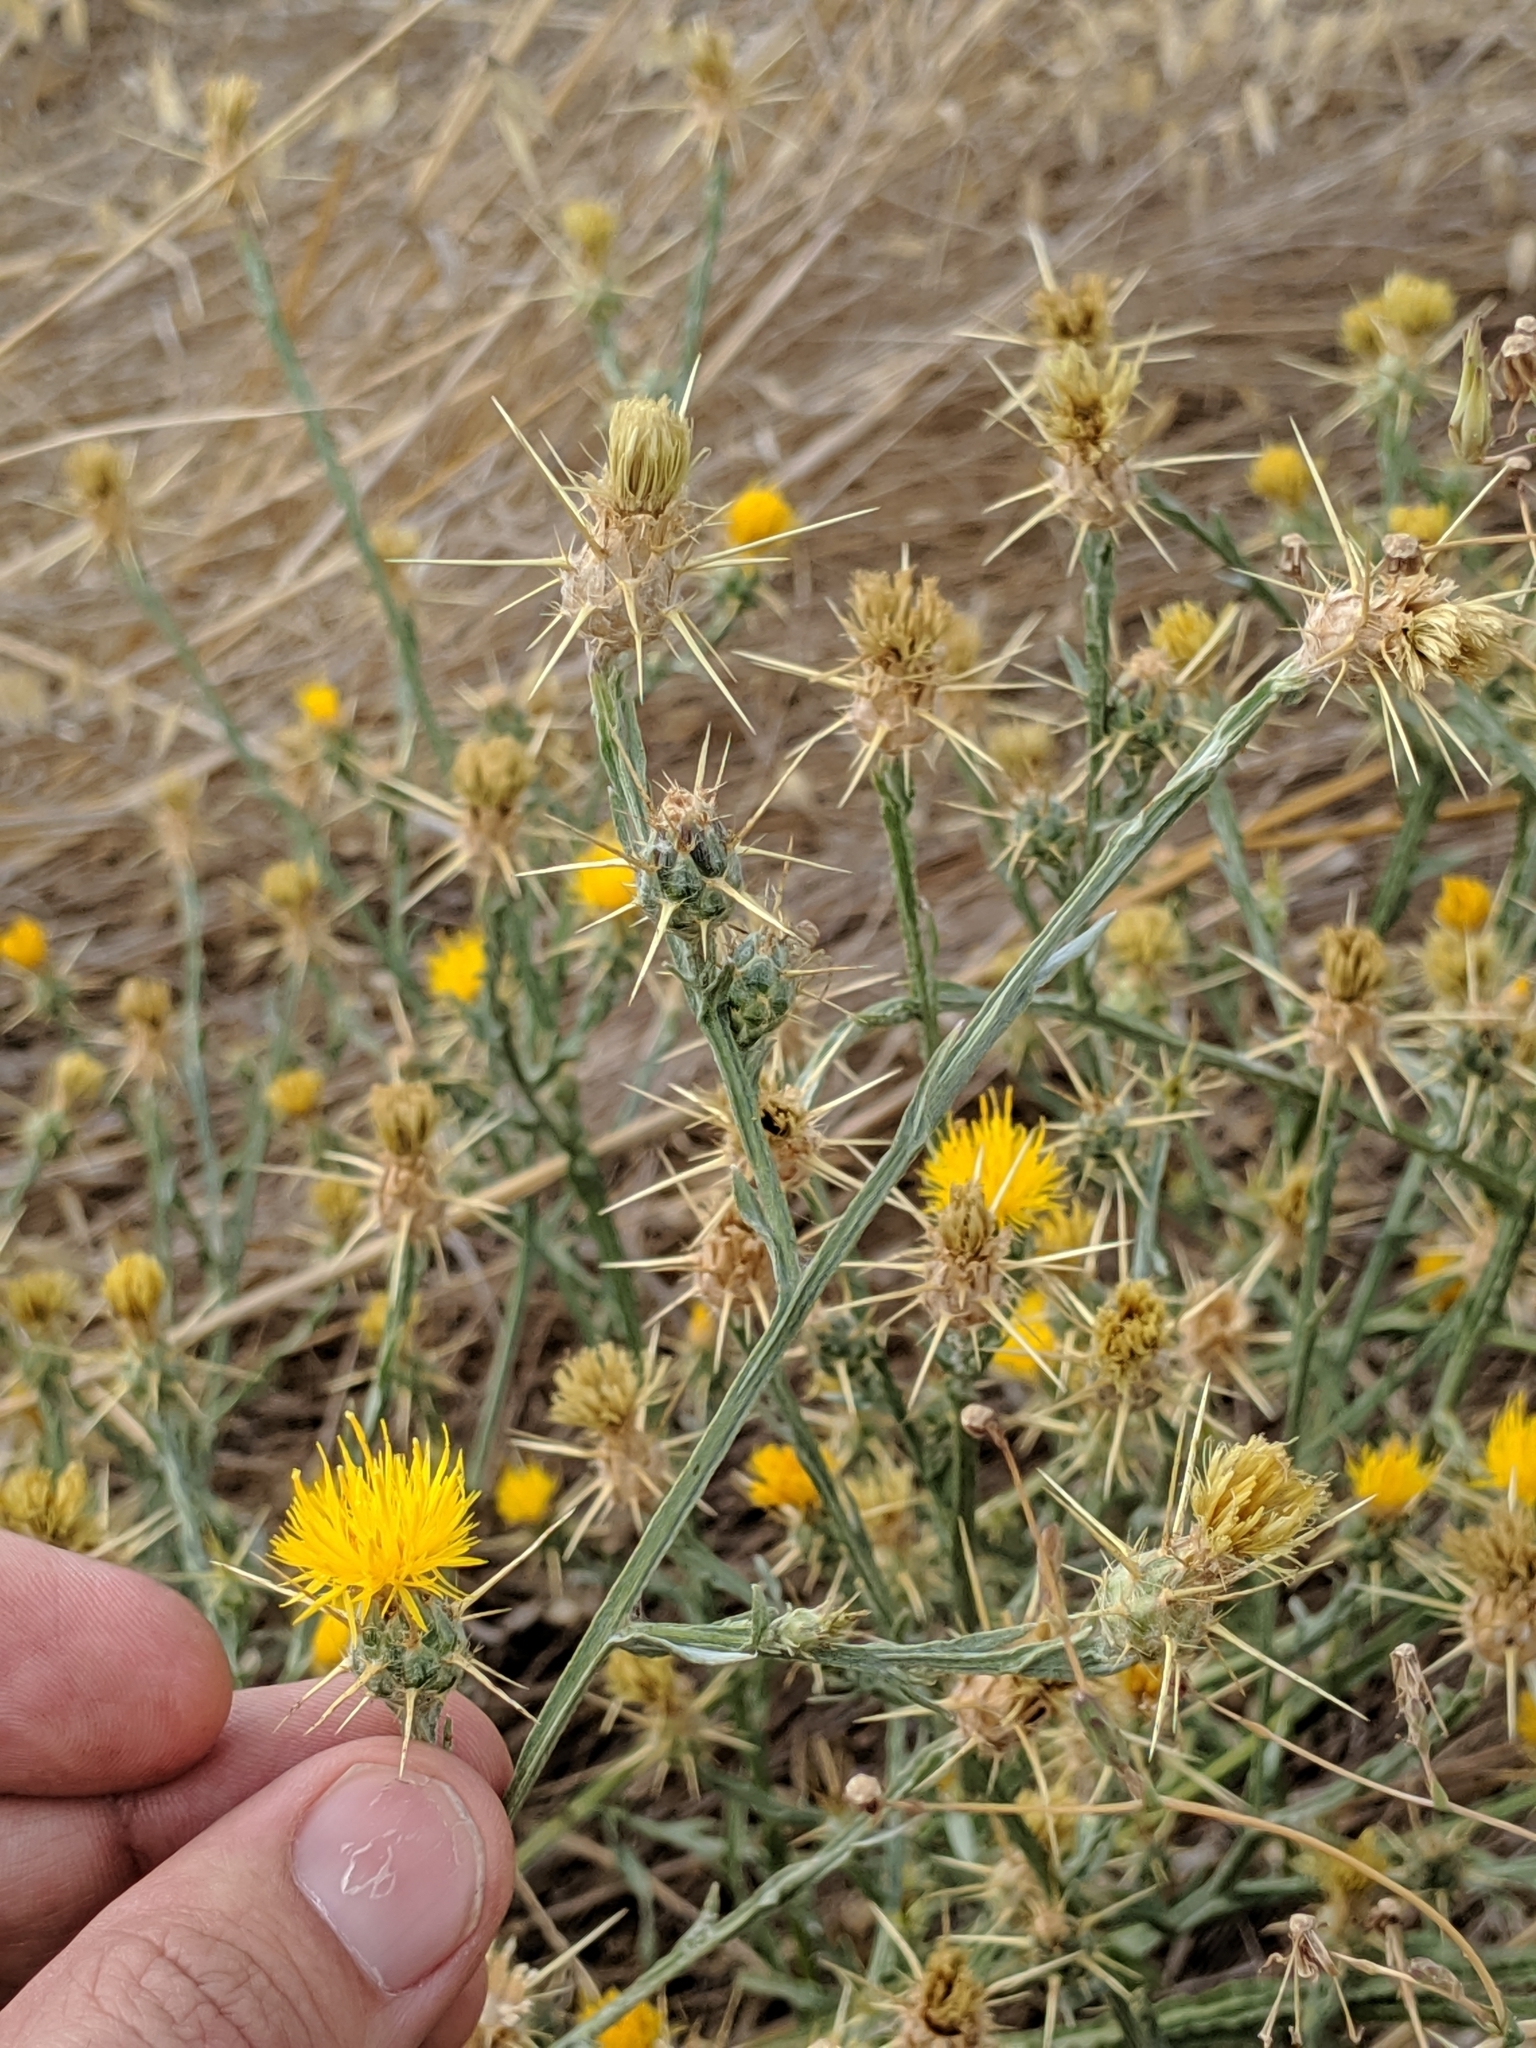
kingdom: Plantae
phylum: Tracheophyta
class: Magnoliopsida
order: Asterales
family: Asteraceae
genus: Centaurea
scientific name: Centaurea solstitialis
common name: Yellow star-thistle
